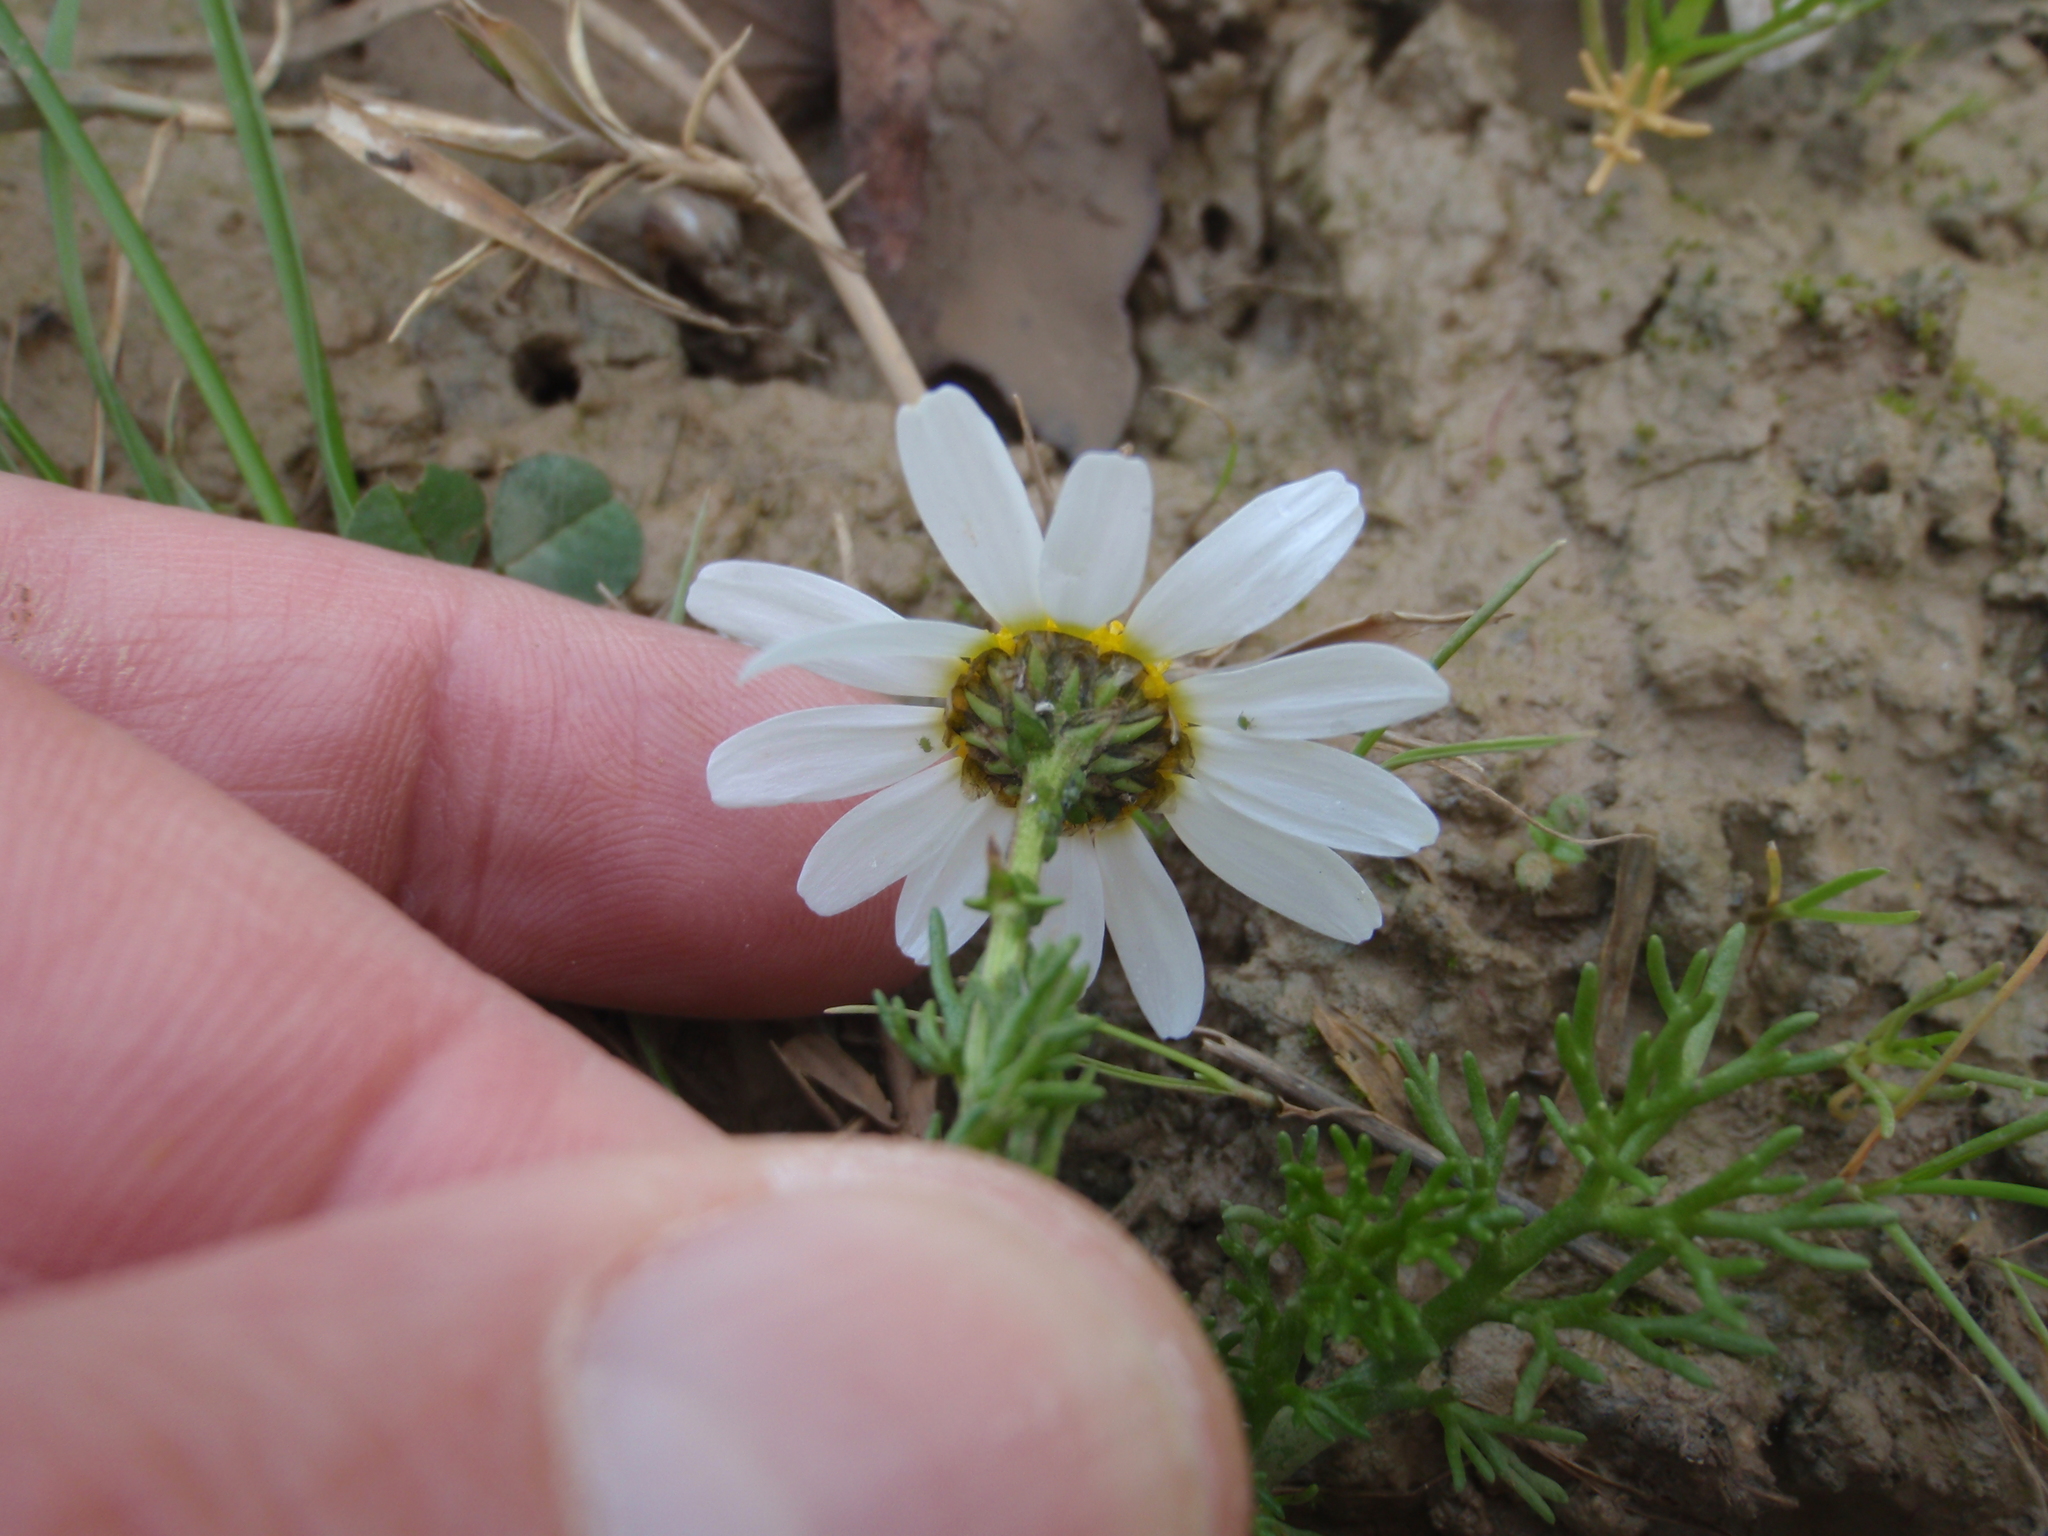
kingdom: Plantae
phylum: Tracheophyta
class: Magnoliopsida
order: Asterales
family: Asteraceae
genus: Chamaemelum
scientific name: Chamaemelum fuscatum
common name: Chamomile
